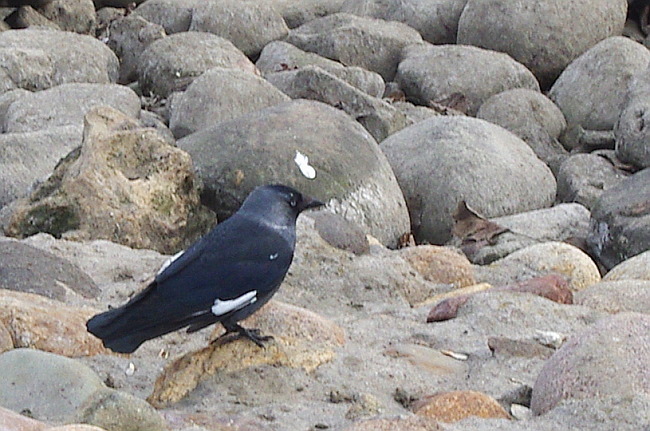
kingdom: Animalia
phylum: Chordata
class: Aves
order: Passeriformes
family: Corvidae
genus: Coloeus
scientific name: Coloeus monedula
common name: Western jackdaw
